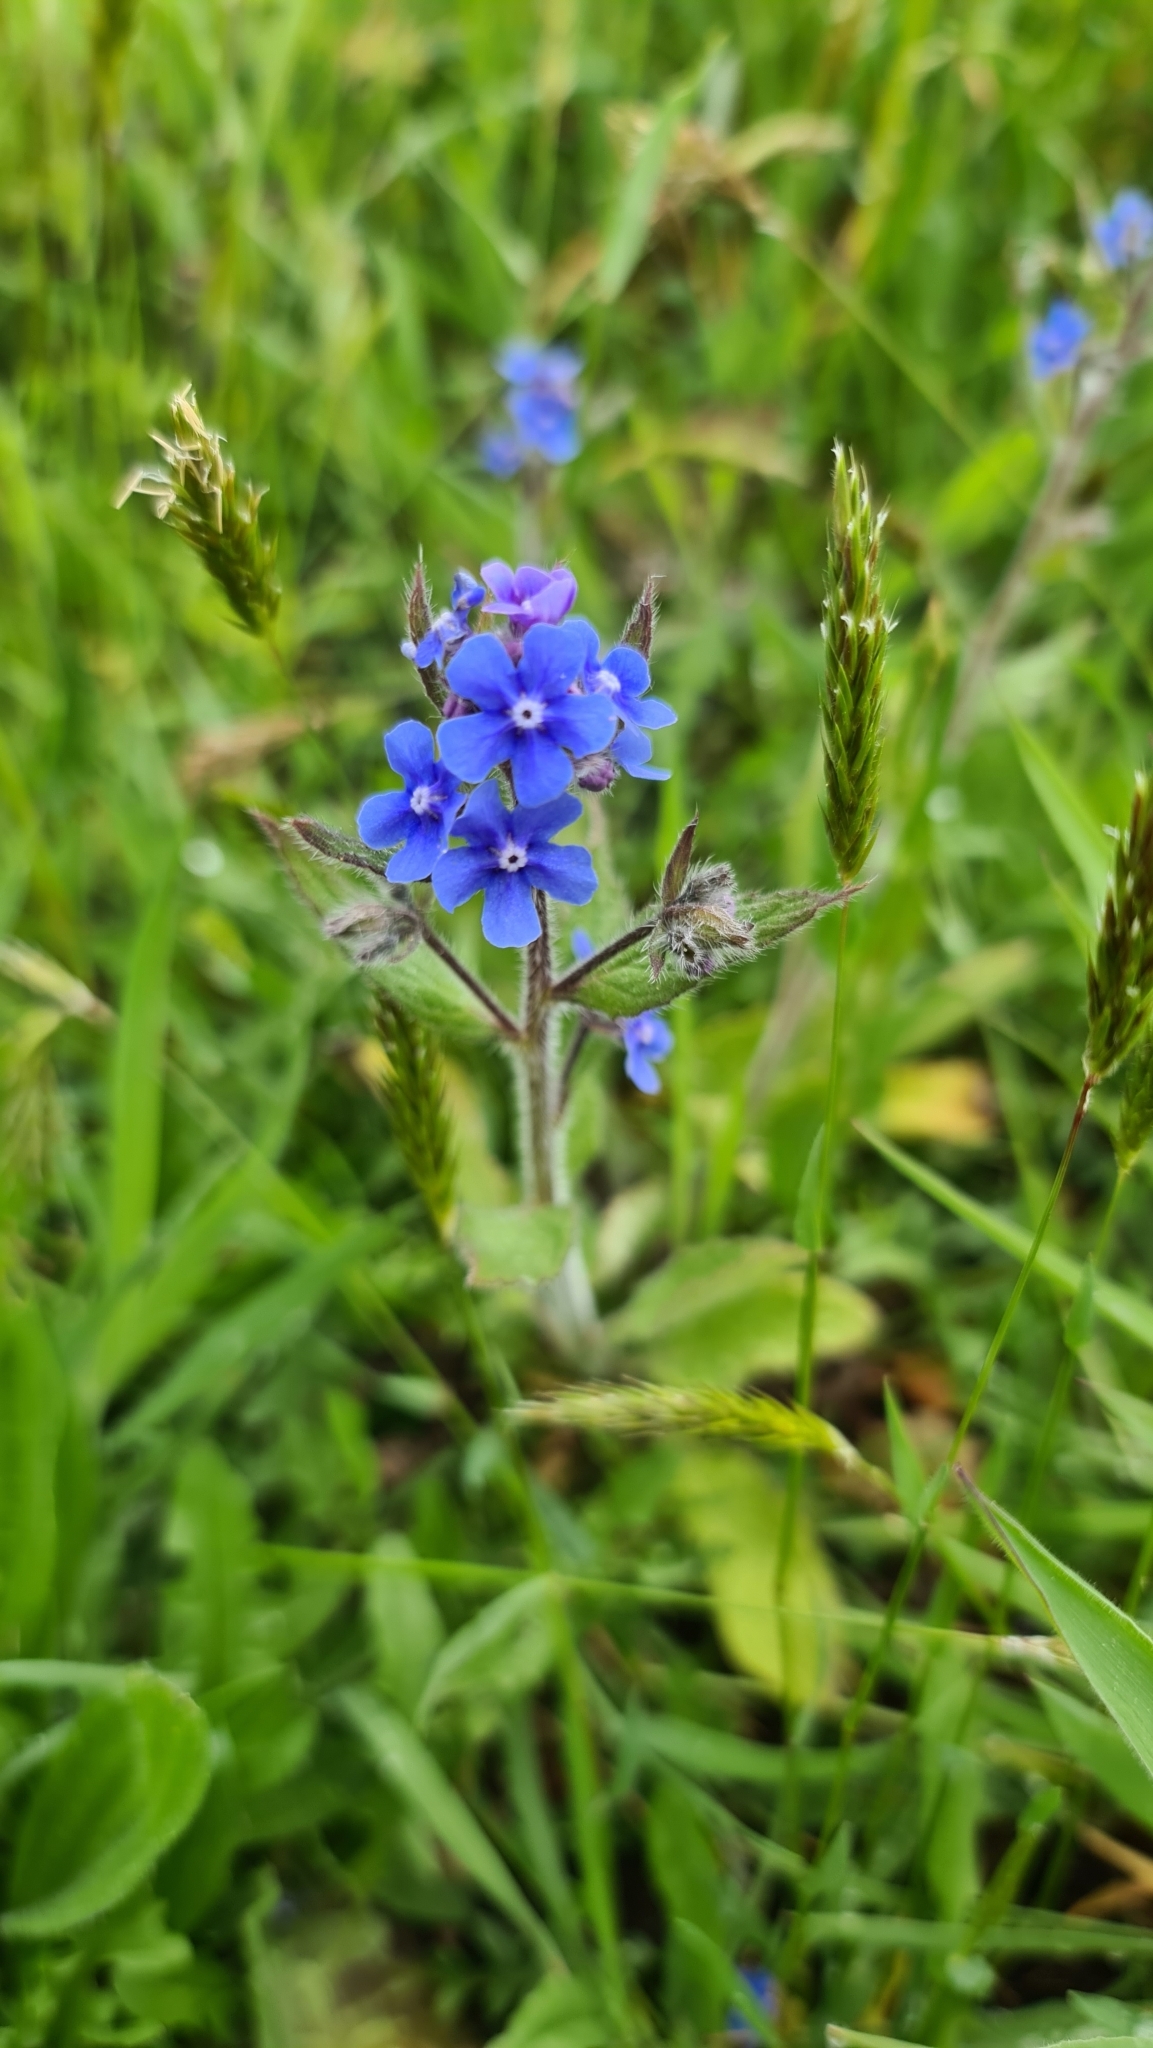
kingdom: Plantae
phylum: Tracheophyta
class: Magnoliopsida
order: Boraginales
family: Boraginaceae
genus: Pentaglottis
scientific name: Pentaglottis sempervirens
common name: Green alkanet
